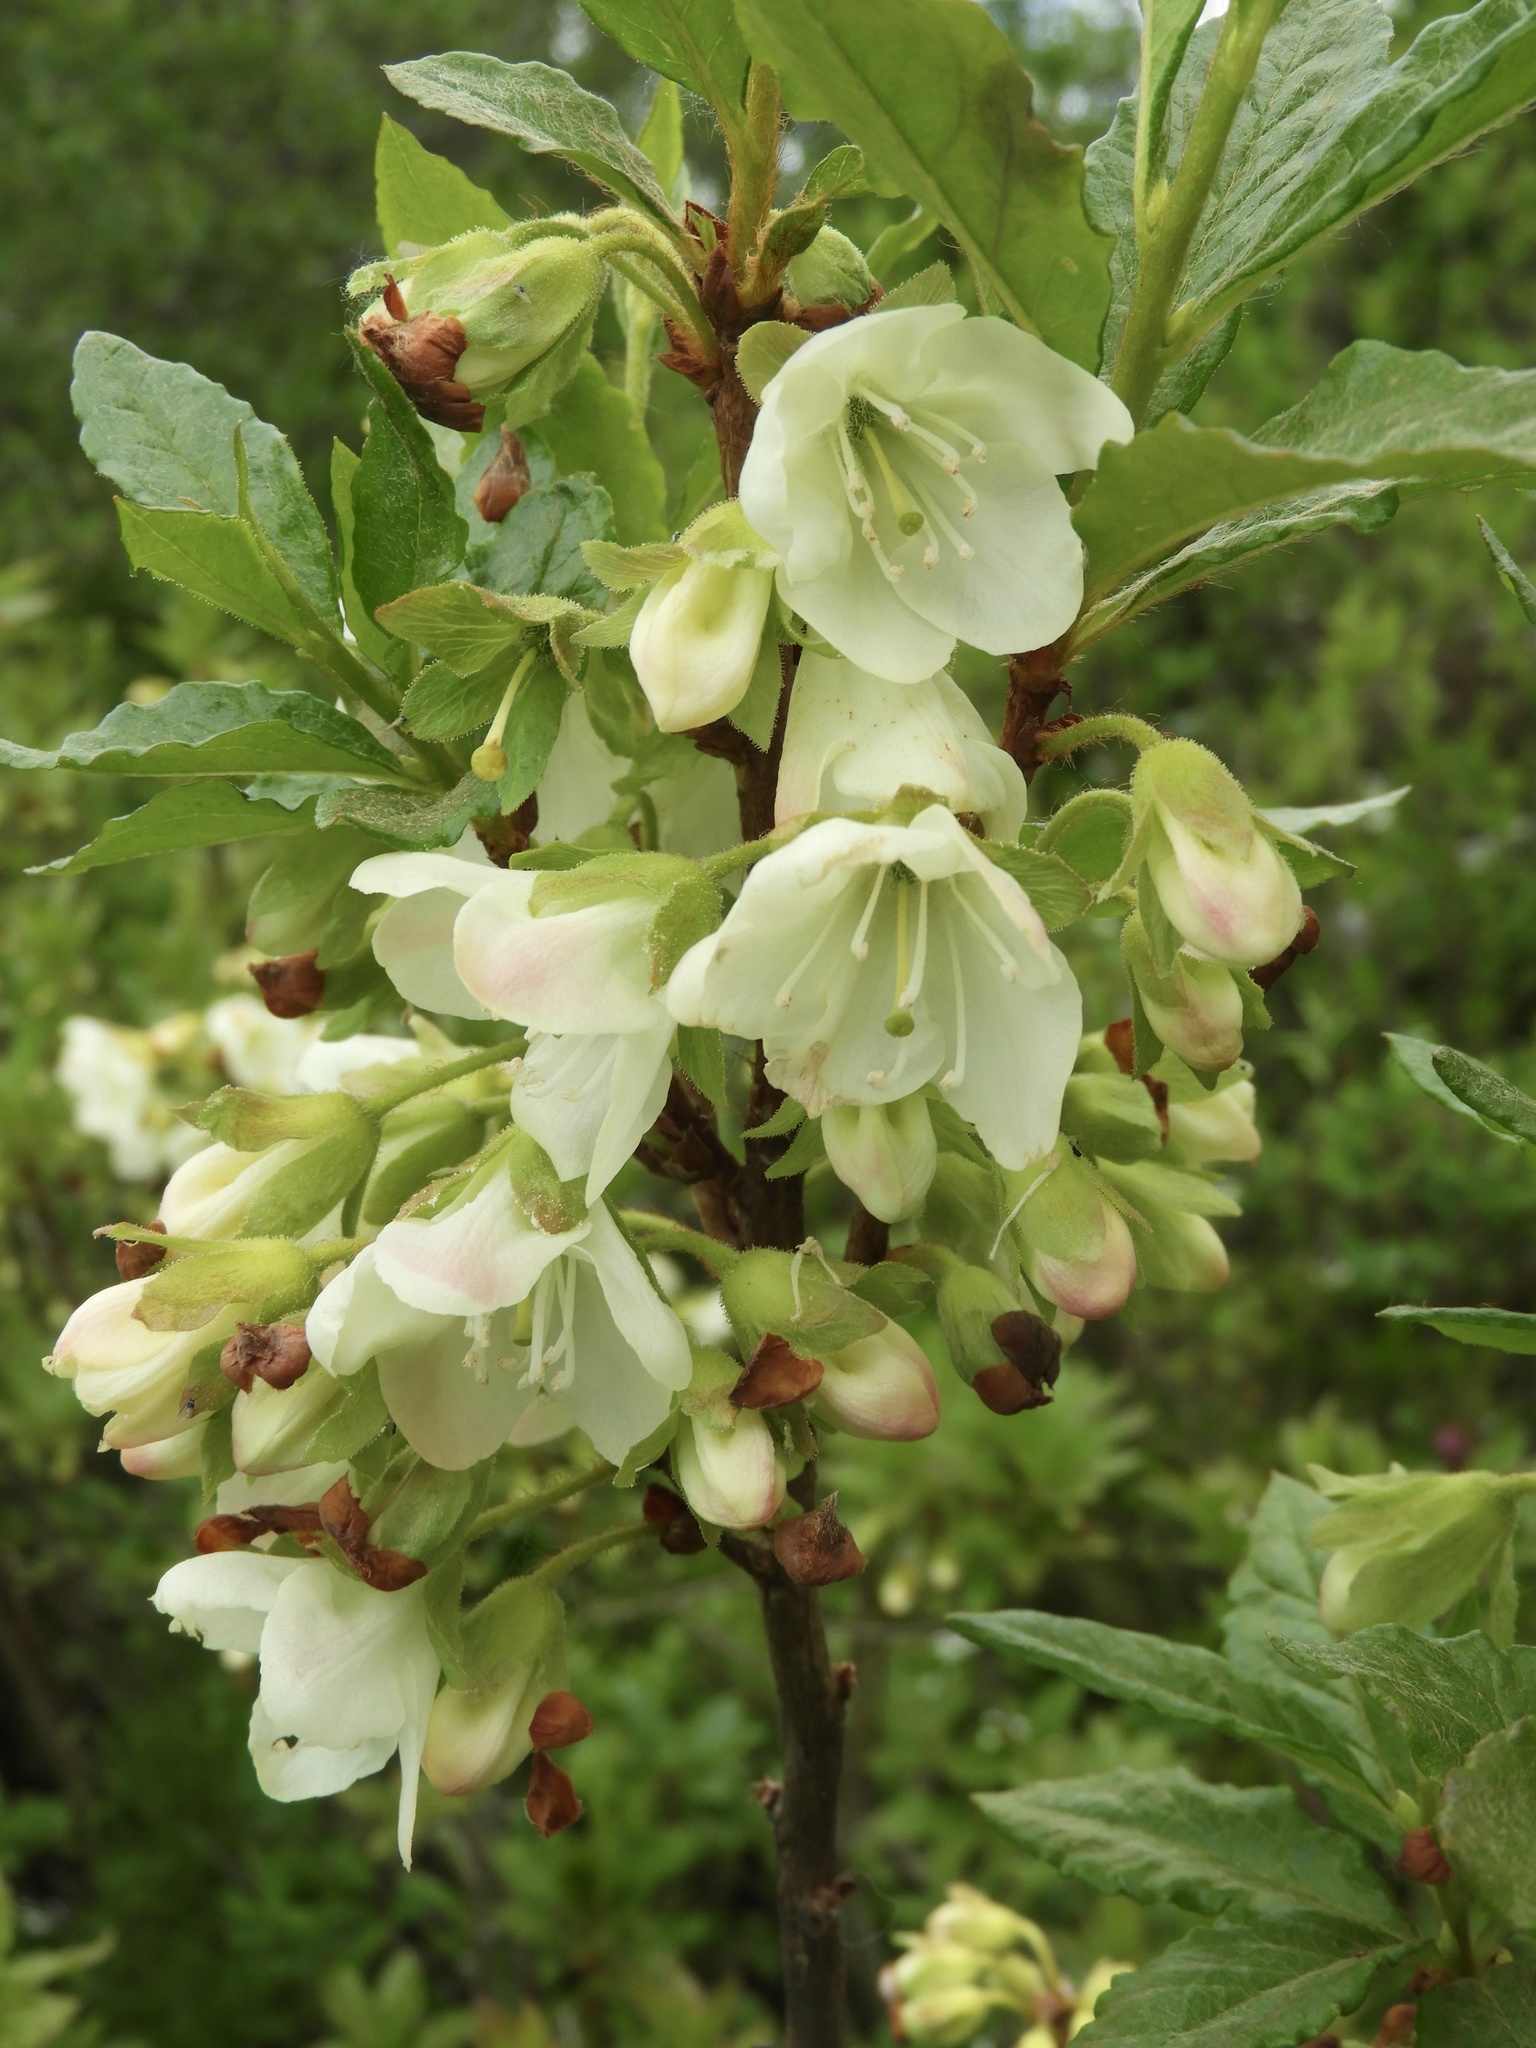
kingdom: Plantae
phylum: Tracheophyta
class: Magnoliopsida
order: Ericales
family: Ericaceae
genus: Rhododendron
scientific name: Rhododendron albiflorum
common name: White rhododendron
